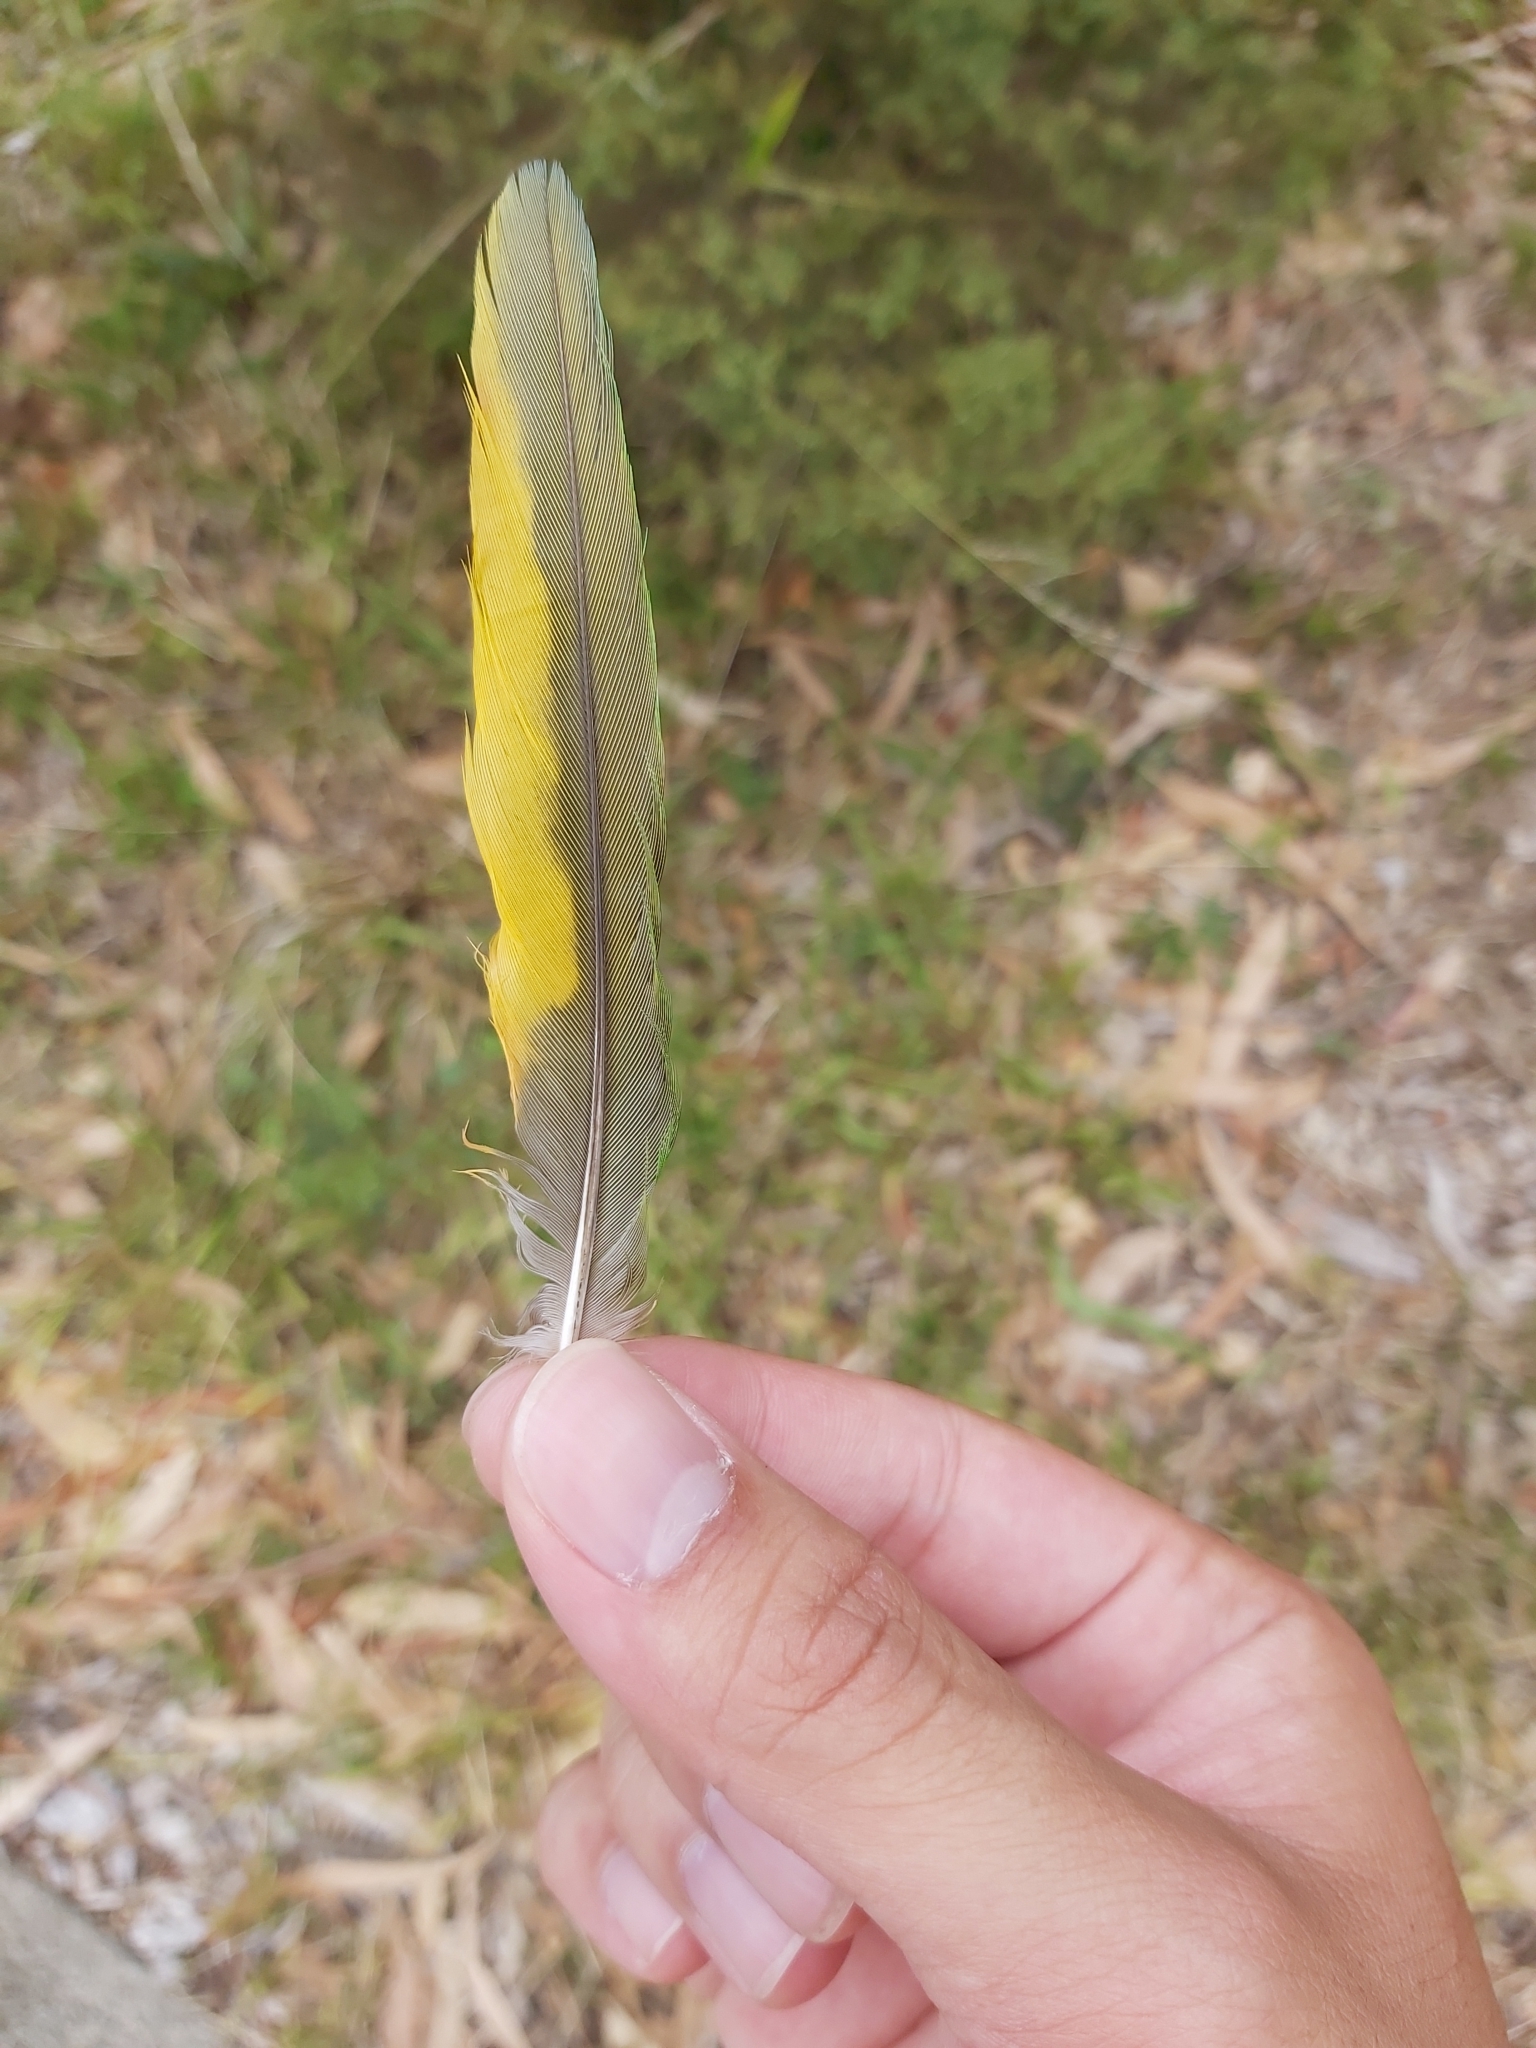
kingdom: Animalia
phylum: Chordata
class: Aves
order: Psittaciformes
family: Psittacidae
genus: Trichoglossus
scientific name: Trichoglossus haematodus
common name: Coconut lorikeet
